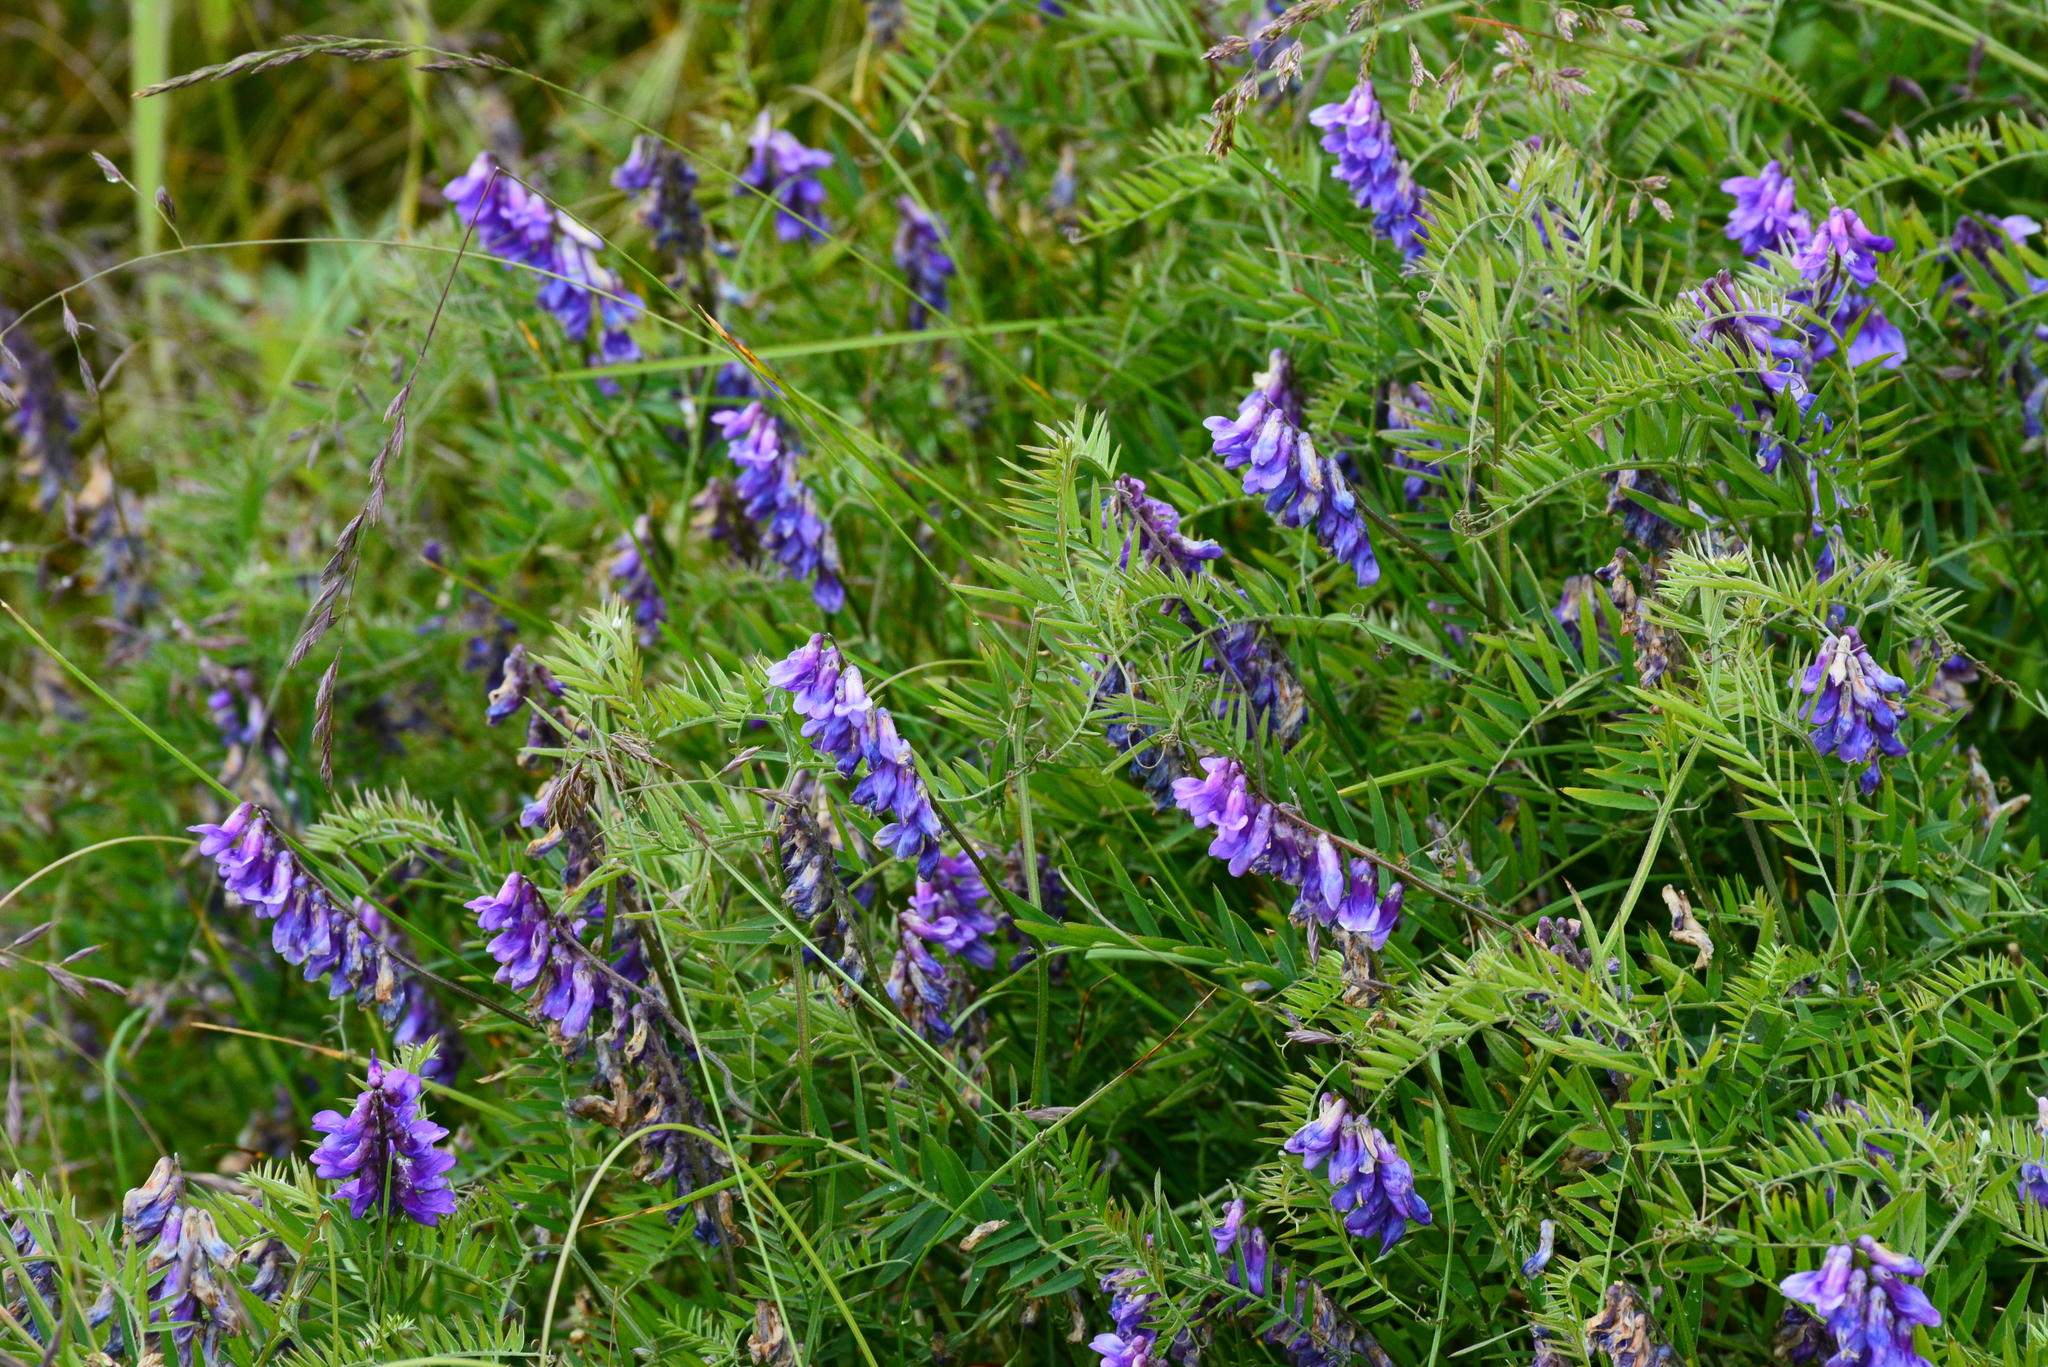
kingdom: Plantae
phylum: Tracheophyta
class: Magnoliopsida
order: Fabales
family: Fabaceae
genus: Vicia
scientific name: Vicia cracca
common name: Bird vetch
